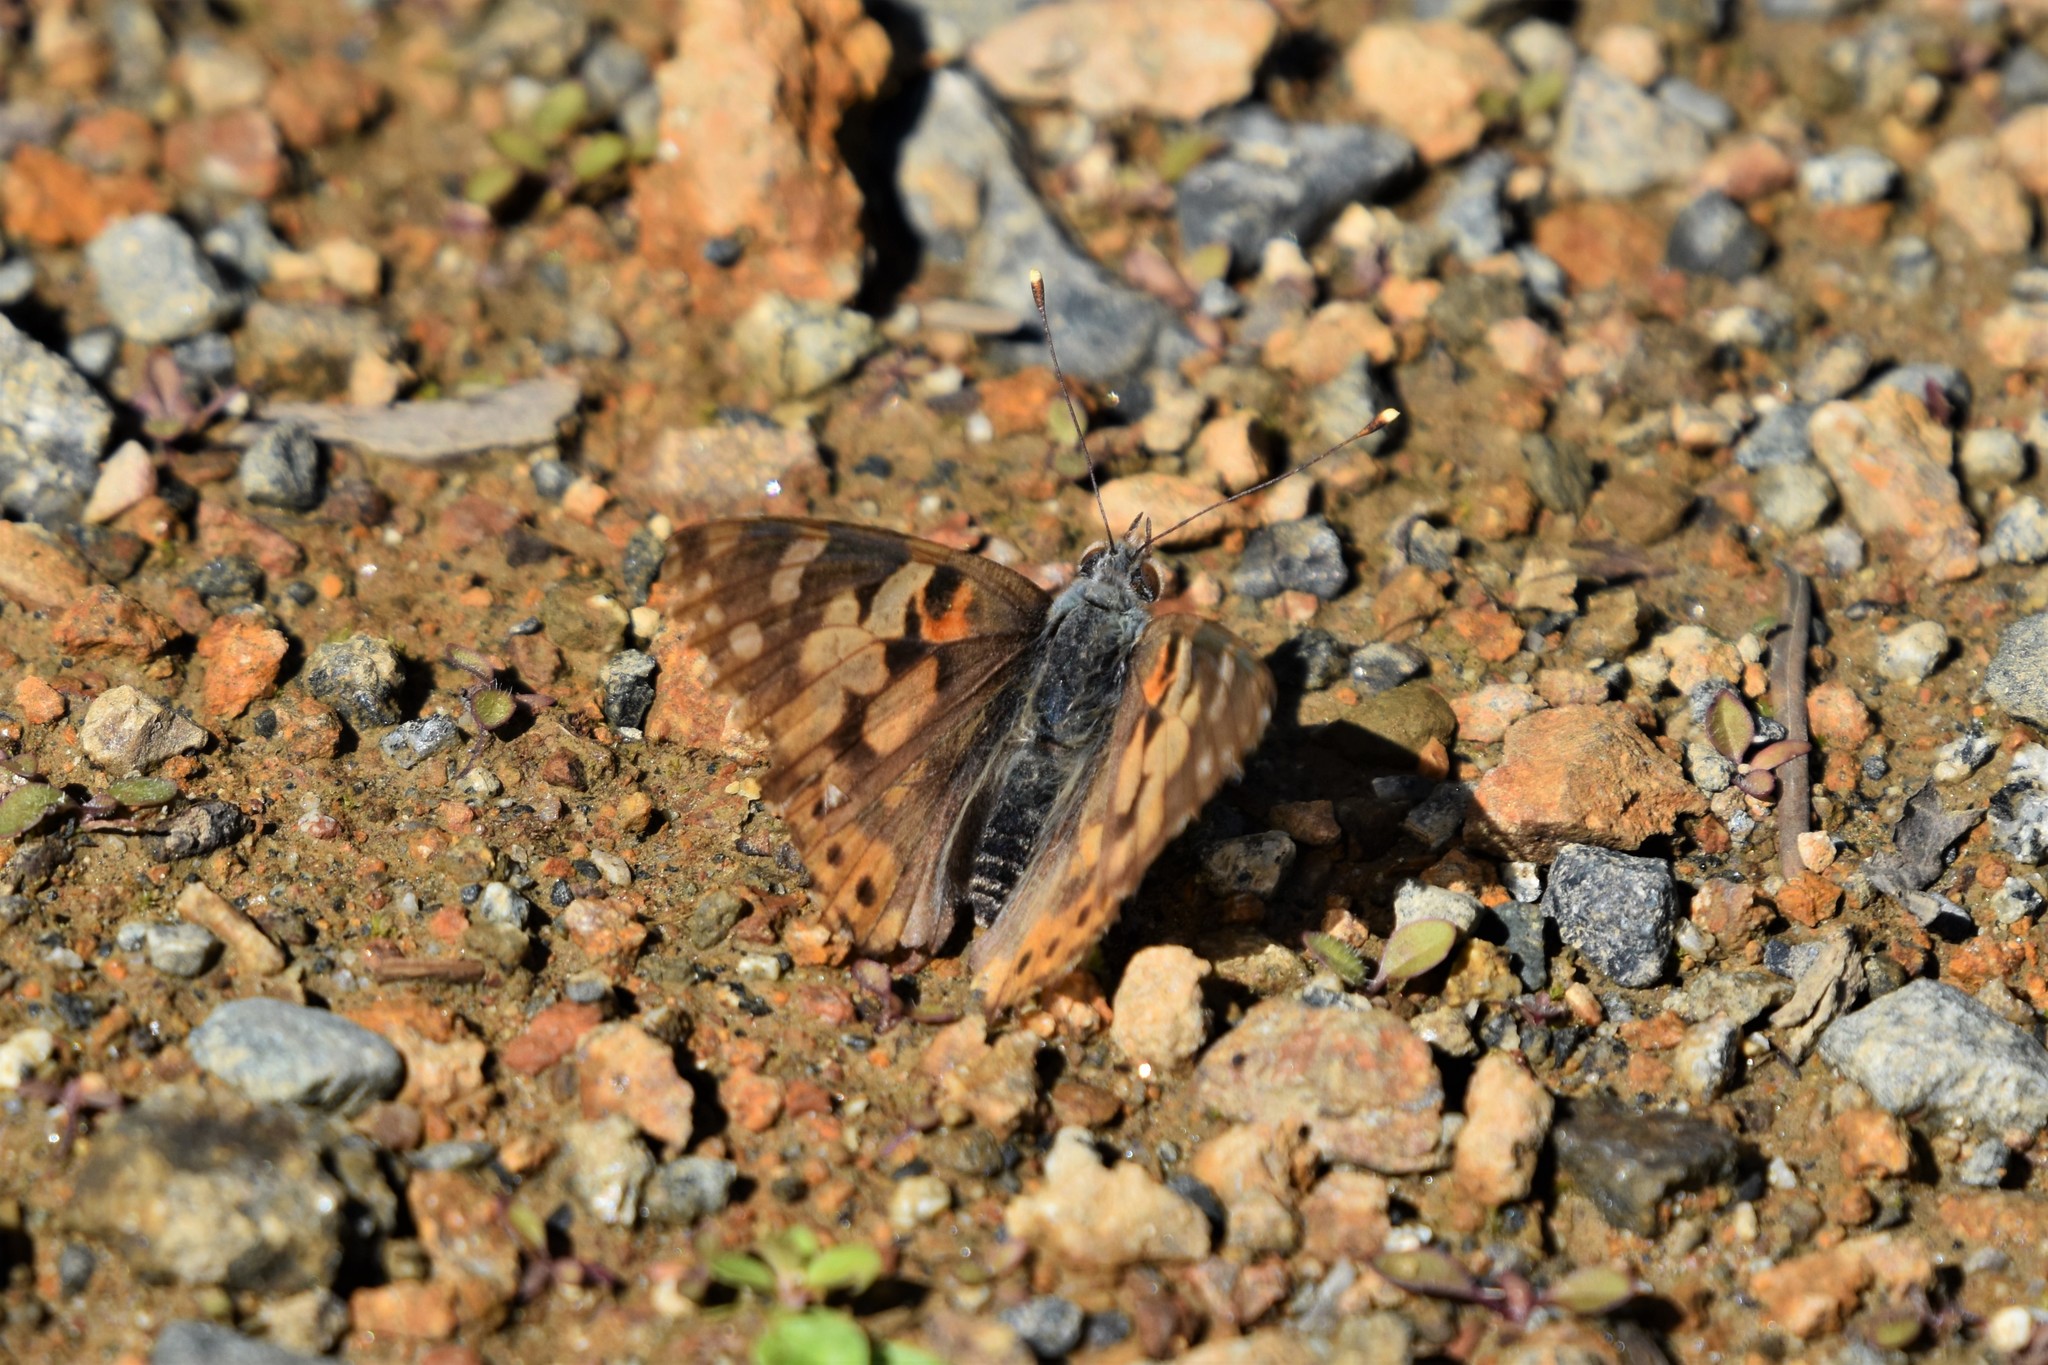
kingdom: Animalia
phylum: Arthropoda
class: Insecta
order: Lepidoptera
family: Nymphalidae
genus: Vanessa
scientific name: Vanessa cardui
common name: Painted lady
